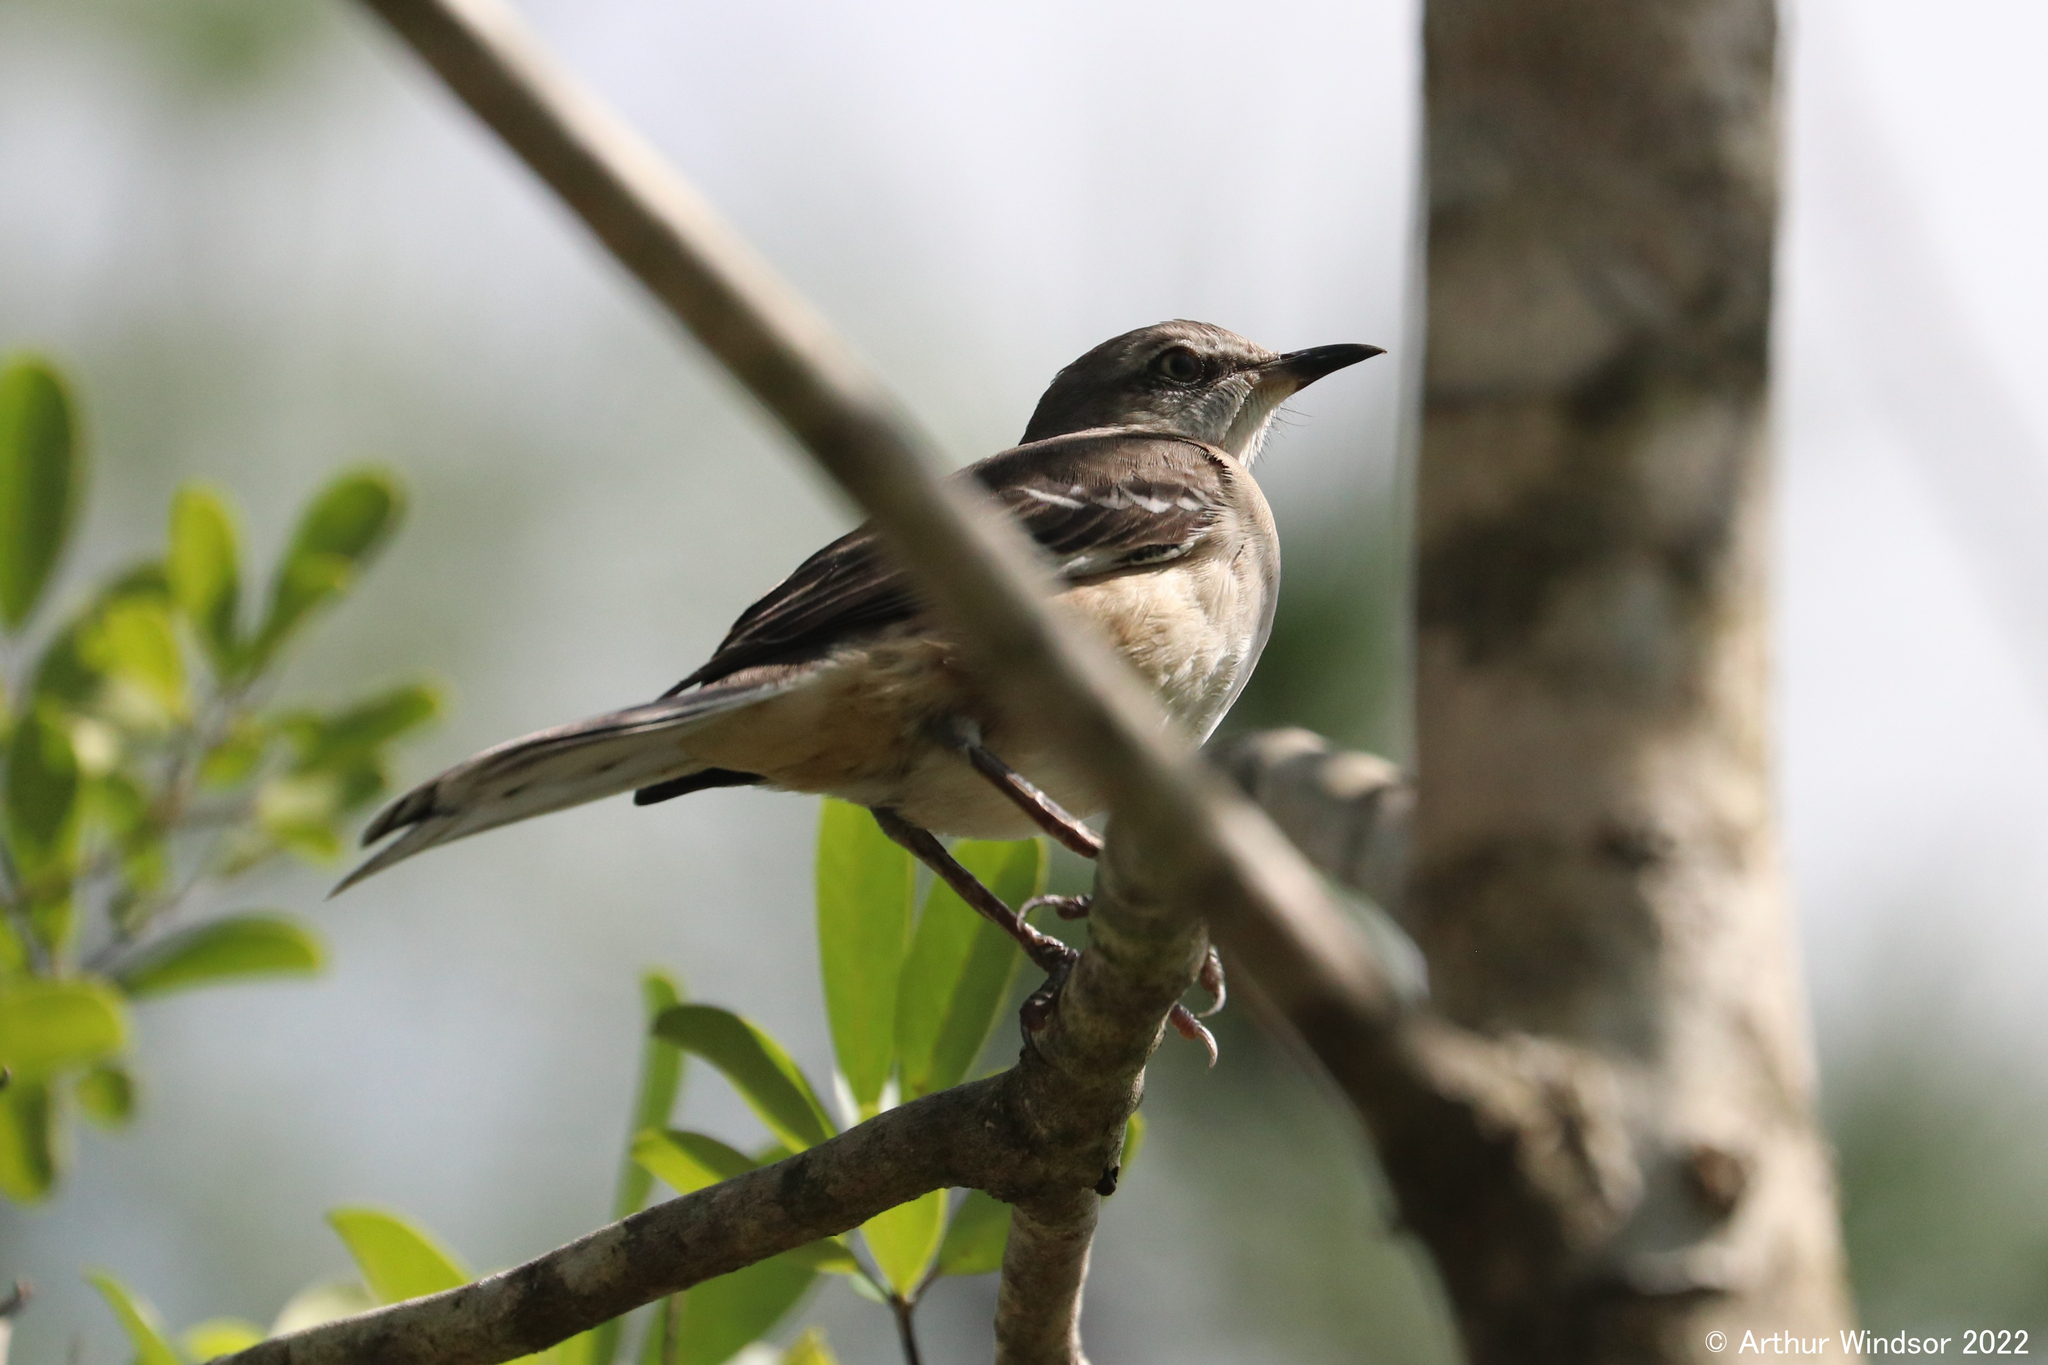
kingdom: Animalia
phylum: Chordata
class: Aves
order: Passeriformes
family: Mimidae
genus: Mimus
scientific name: Mimus polyglottos
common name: Northern mockingbird
